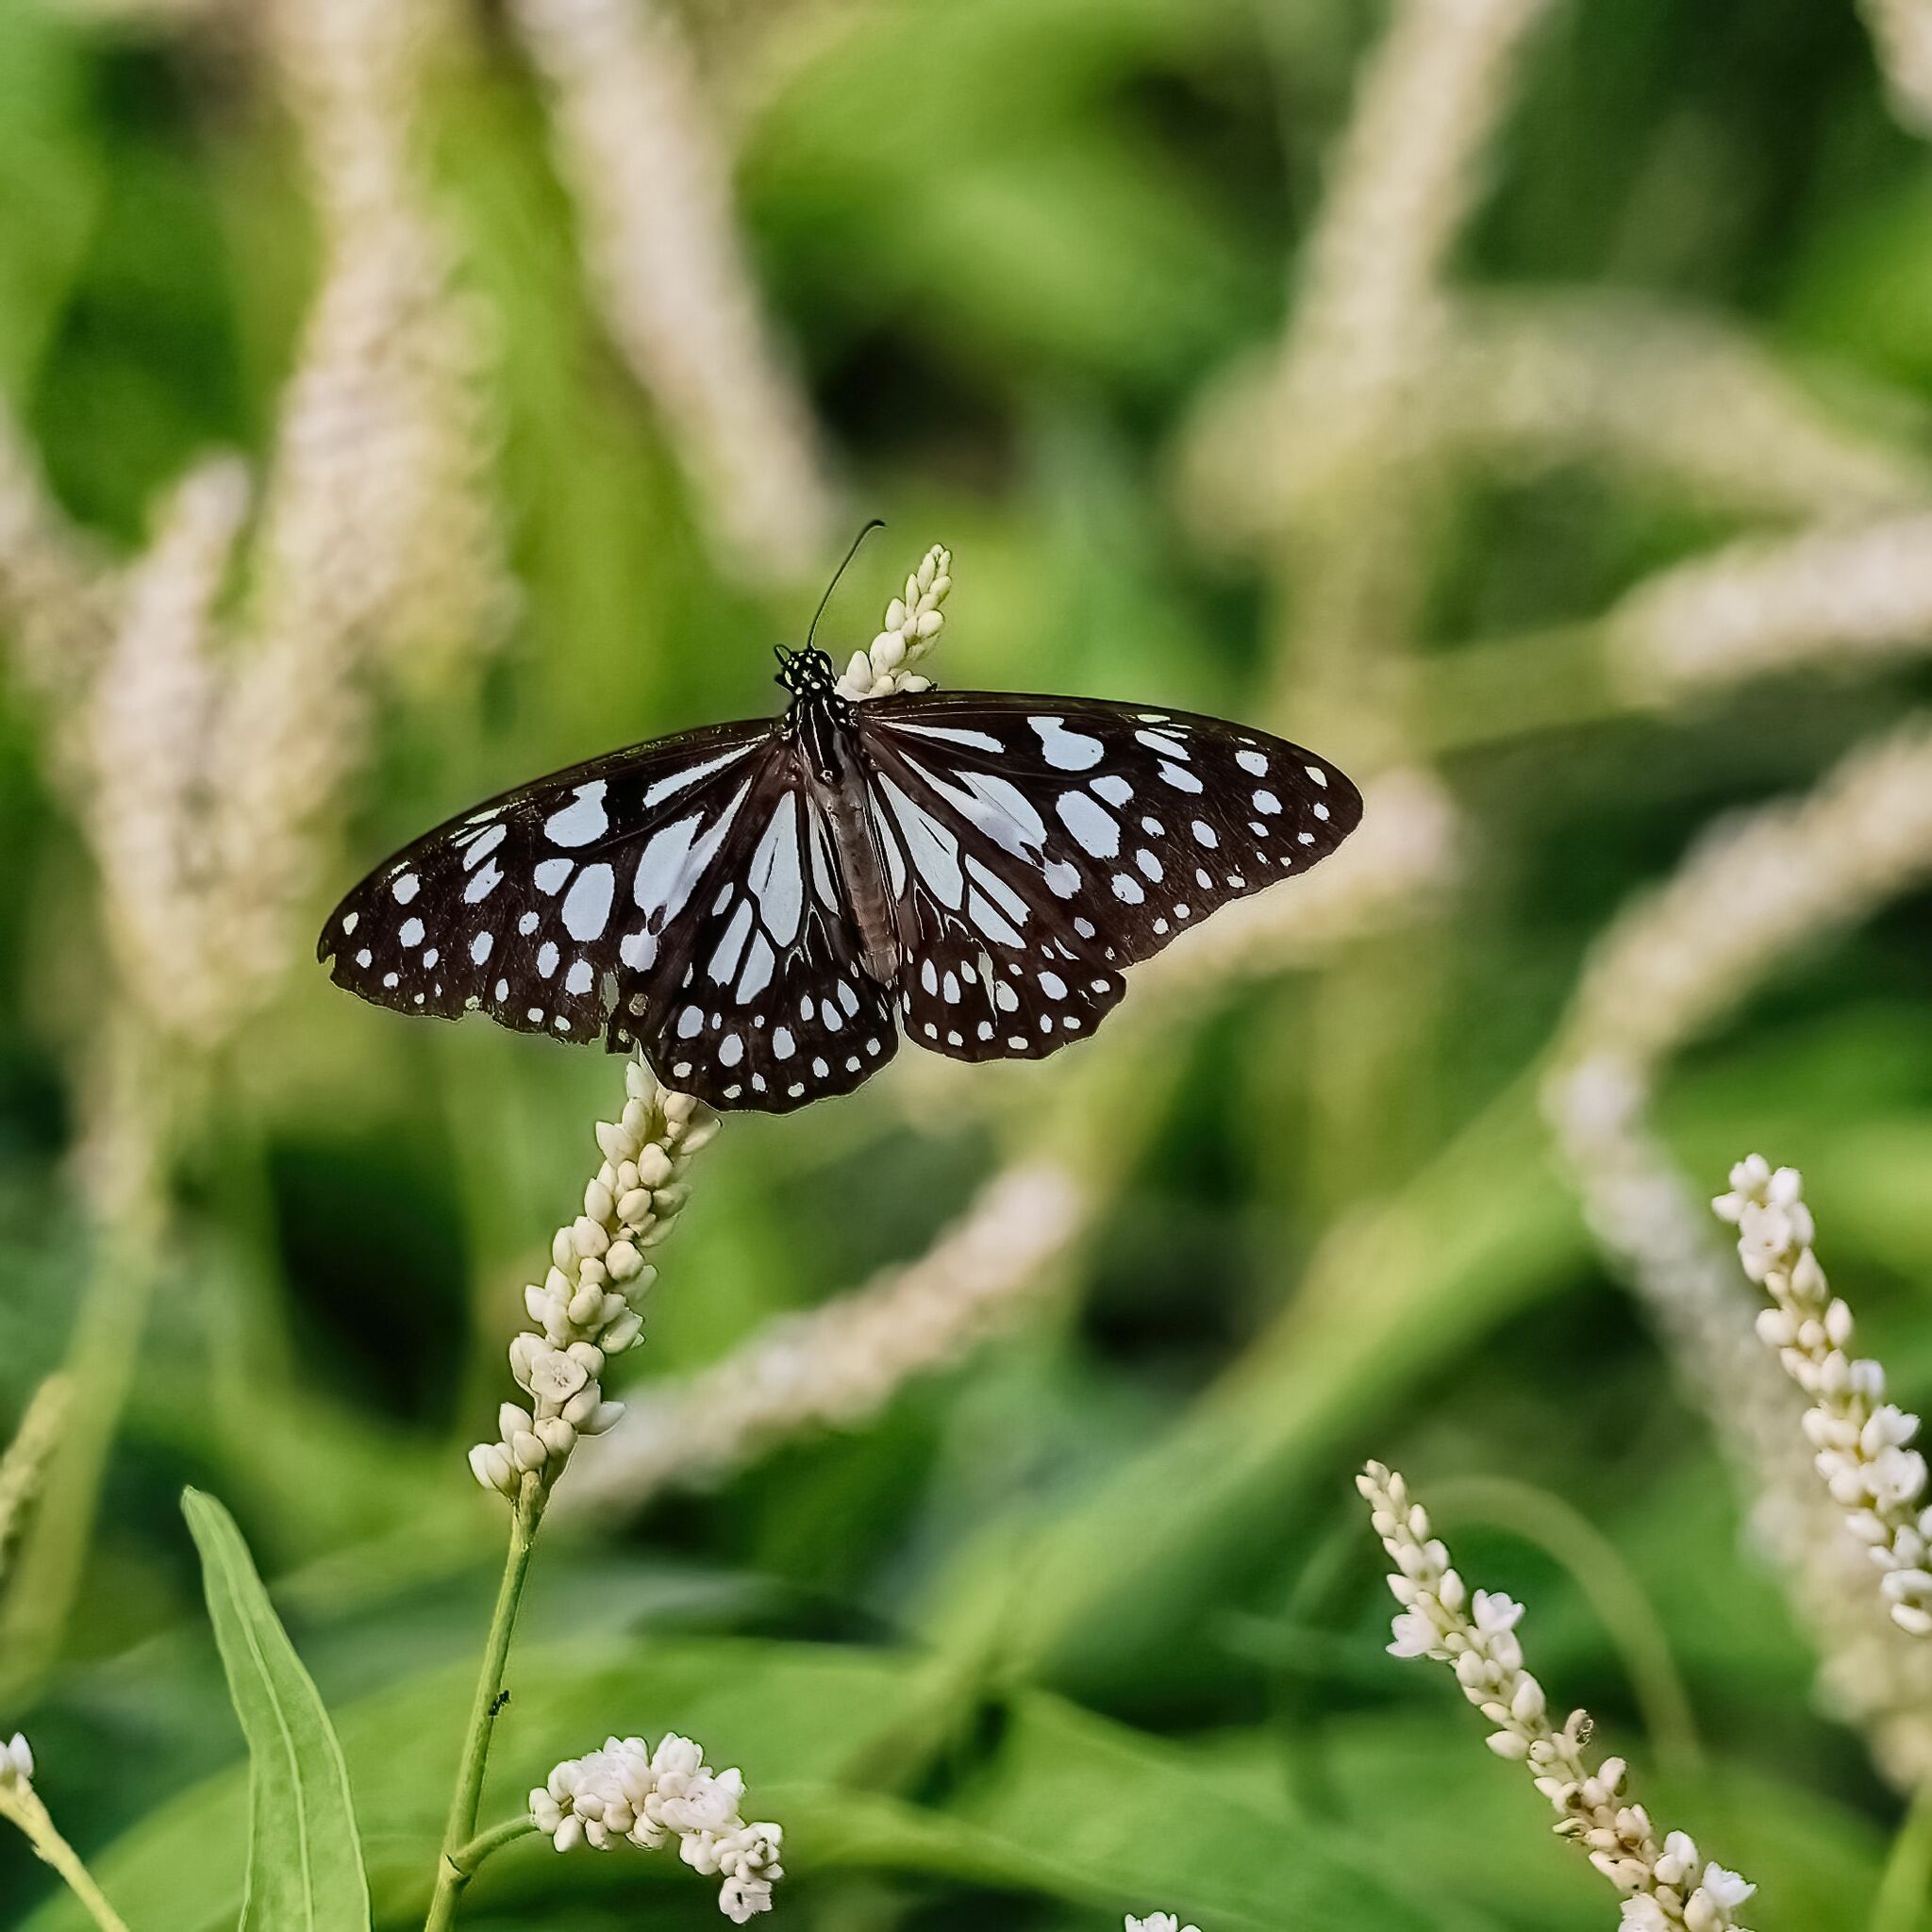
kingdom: Animalia
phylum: Arthropoda
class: Insecta
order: Lepidoptera
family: Nymphalidae
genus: Tirumala
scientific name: Tirumala limniace
